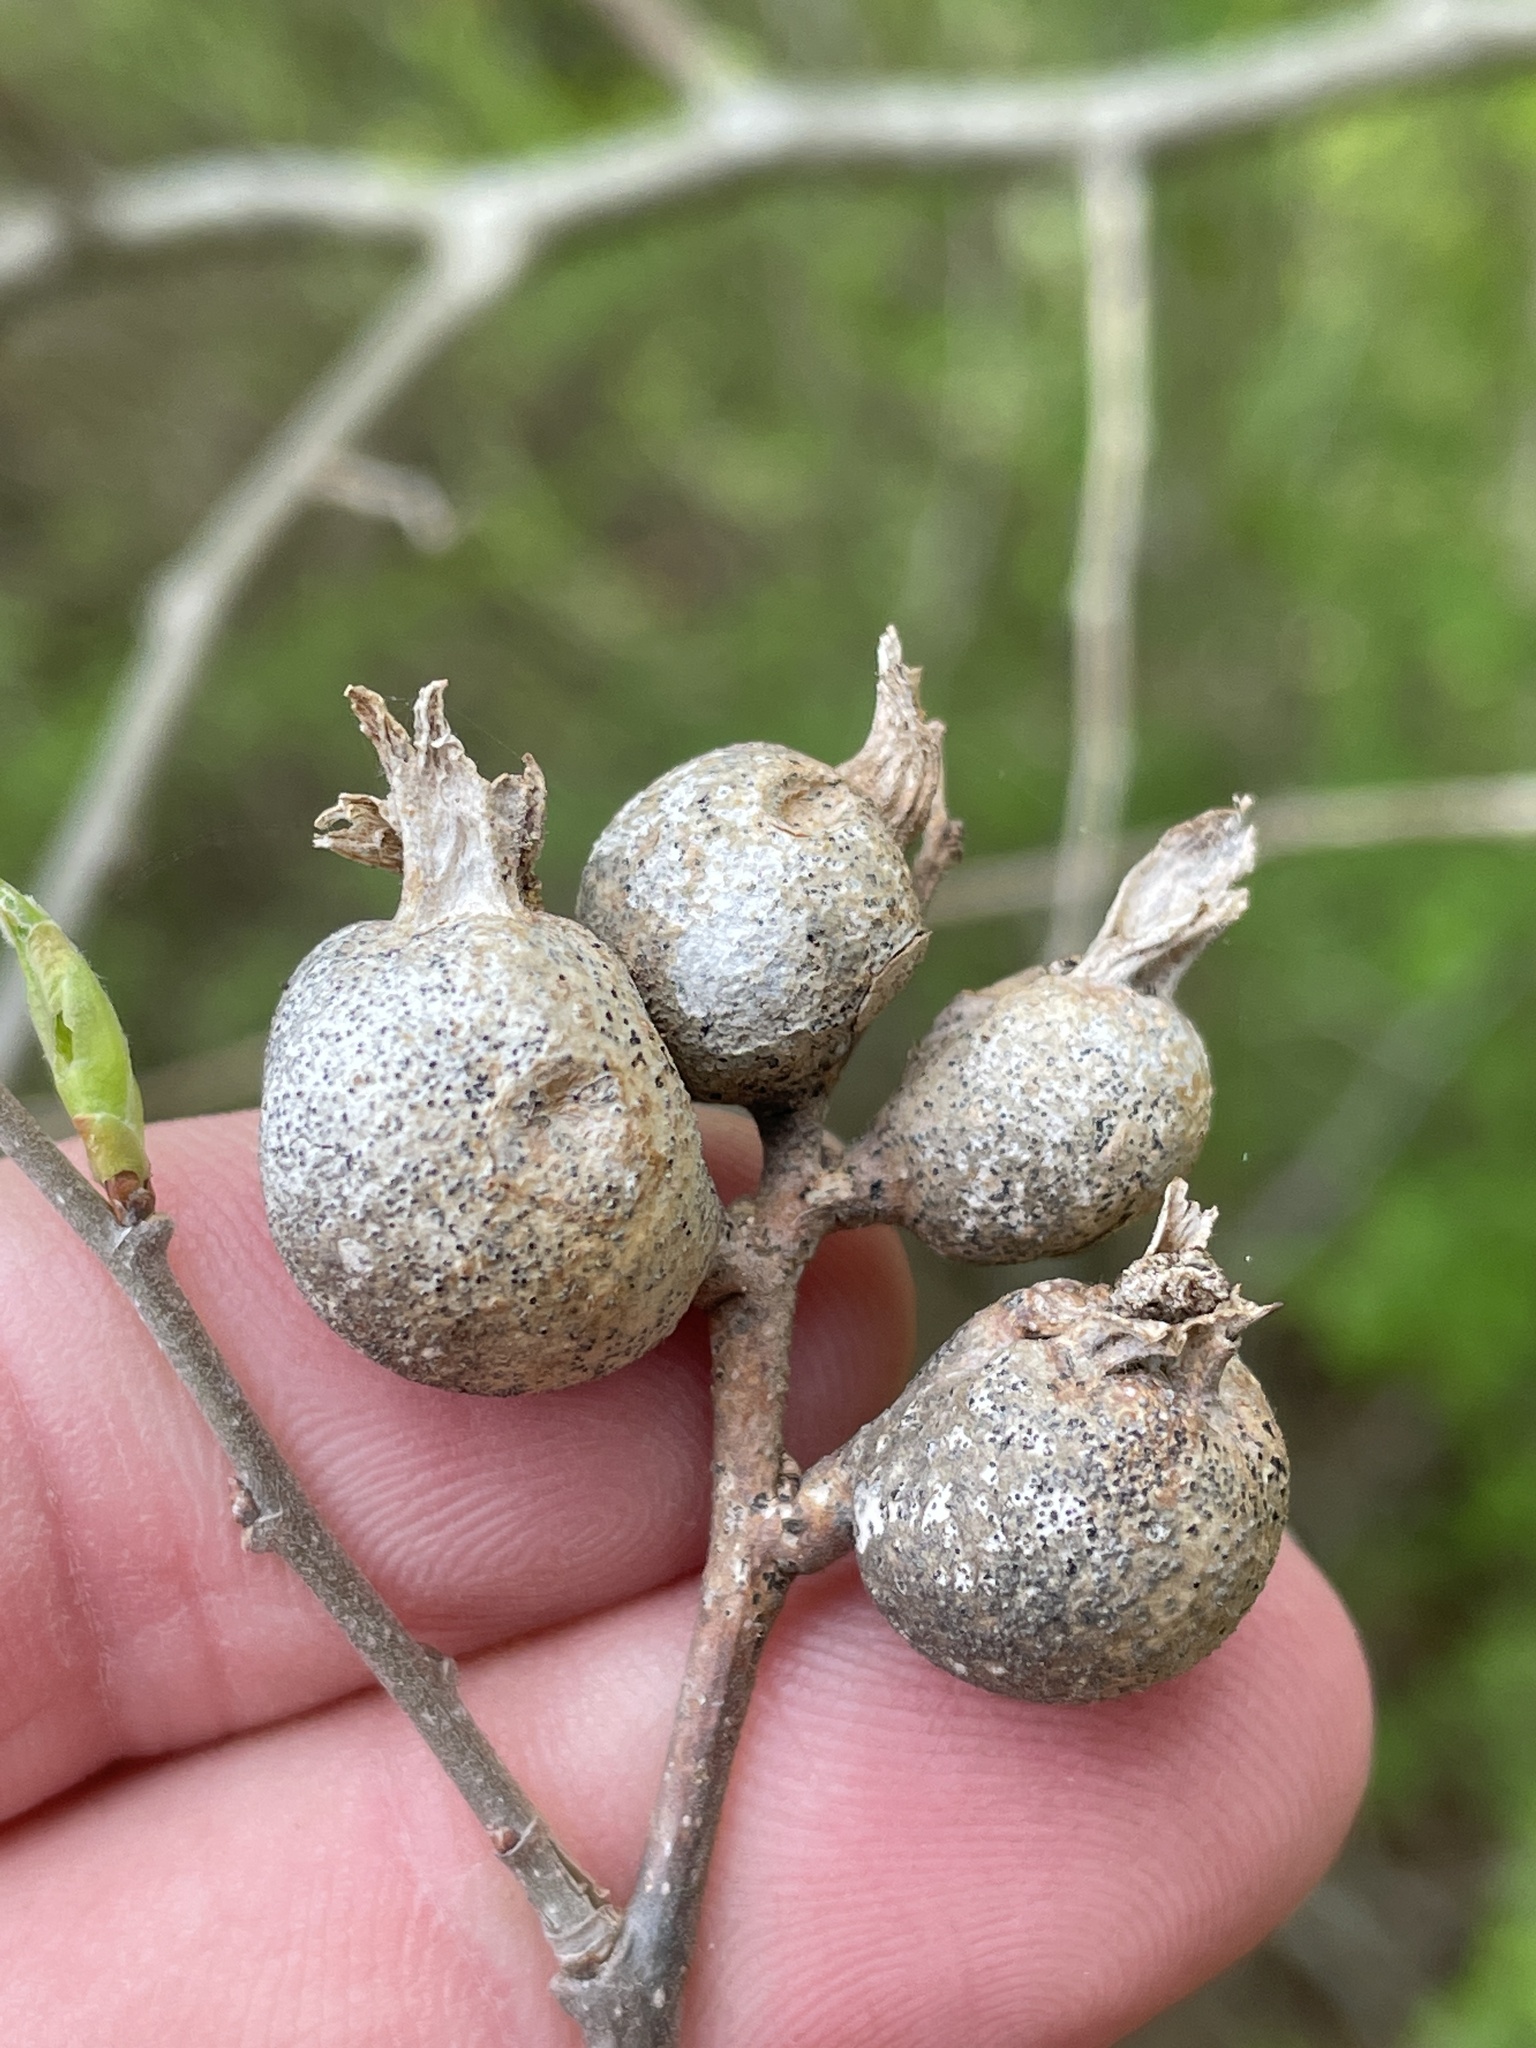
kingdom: Animalia
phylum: Arthropoda
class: Insecta
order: Hemiptera
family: Aphalaridae
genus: Pachypsylla
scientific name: Pachypsylla venusta
